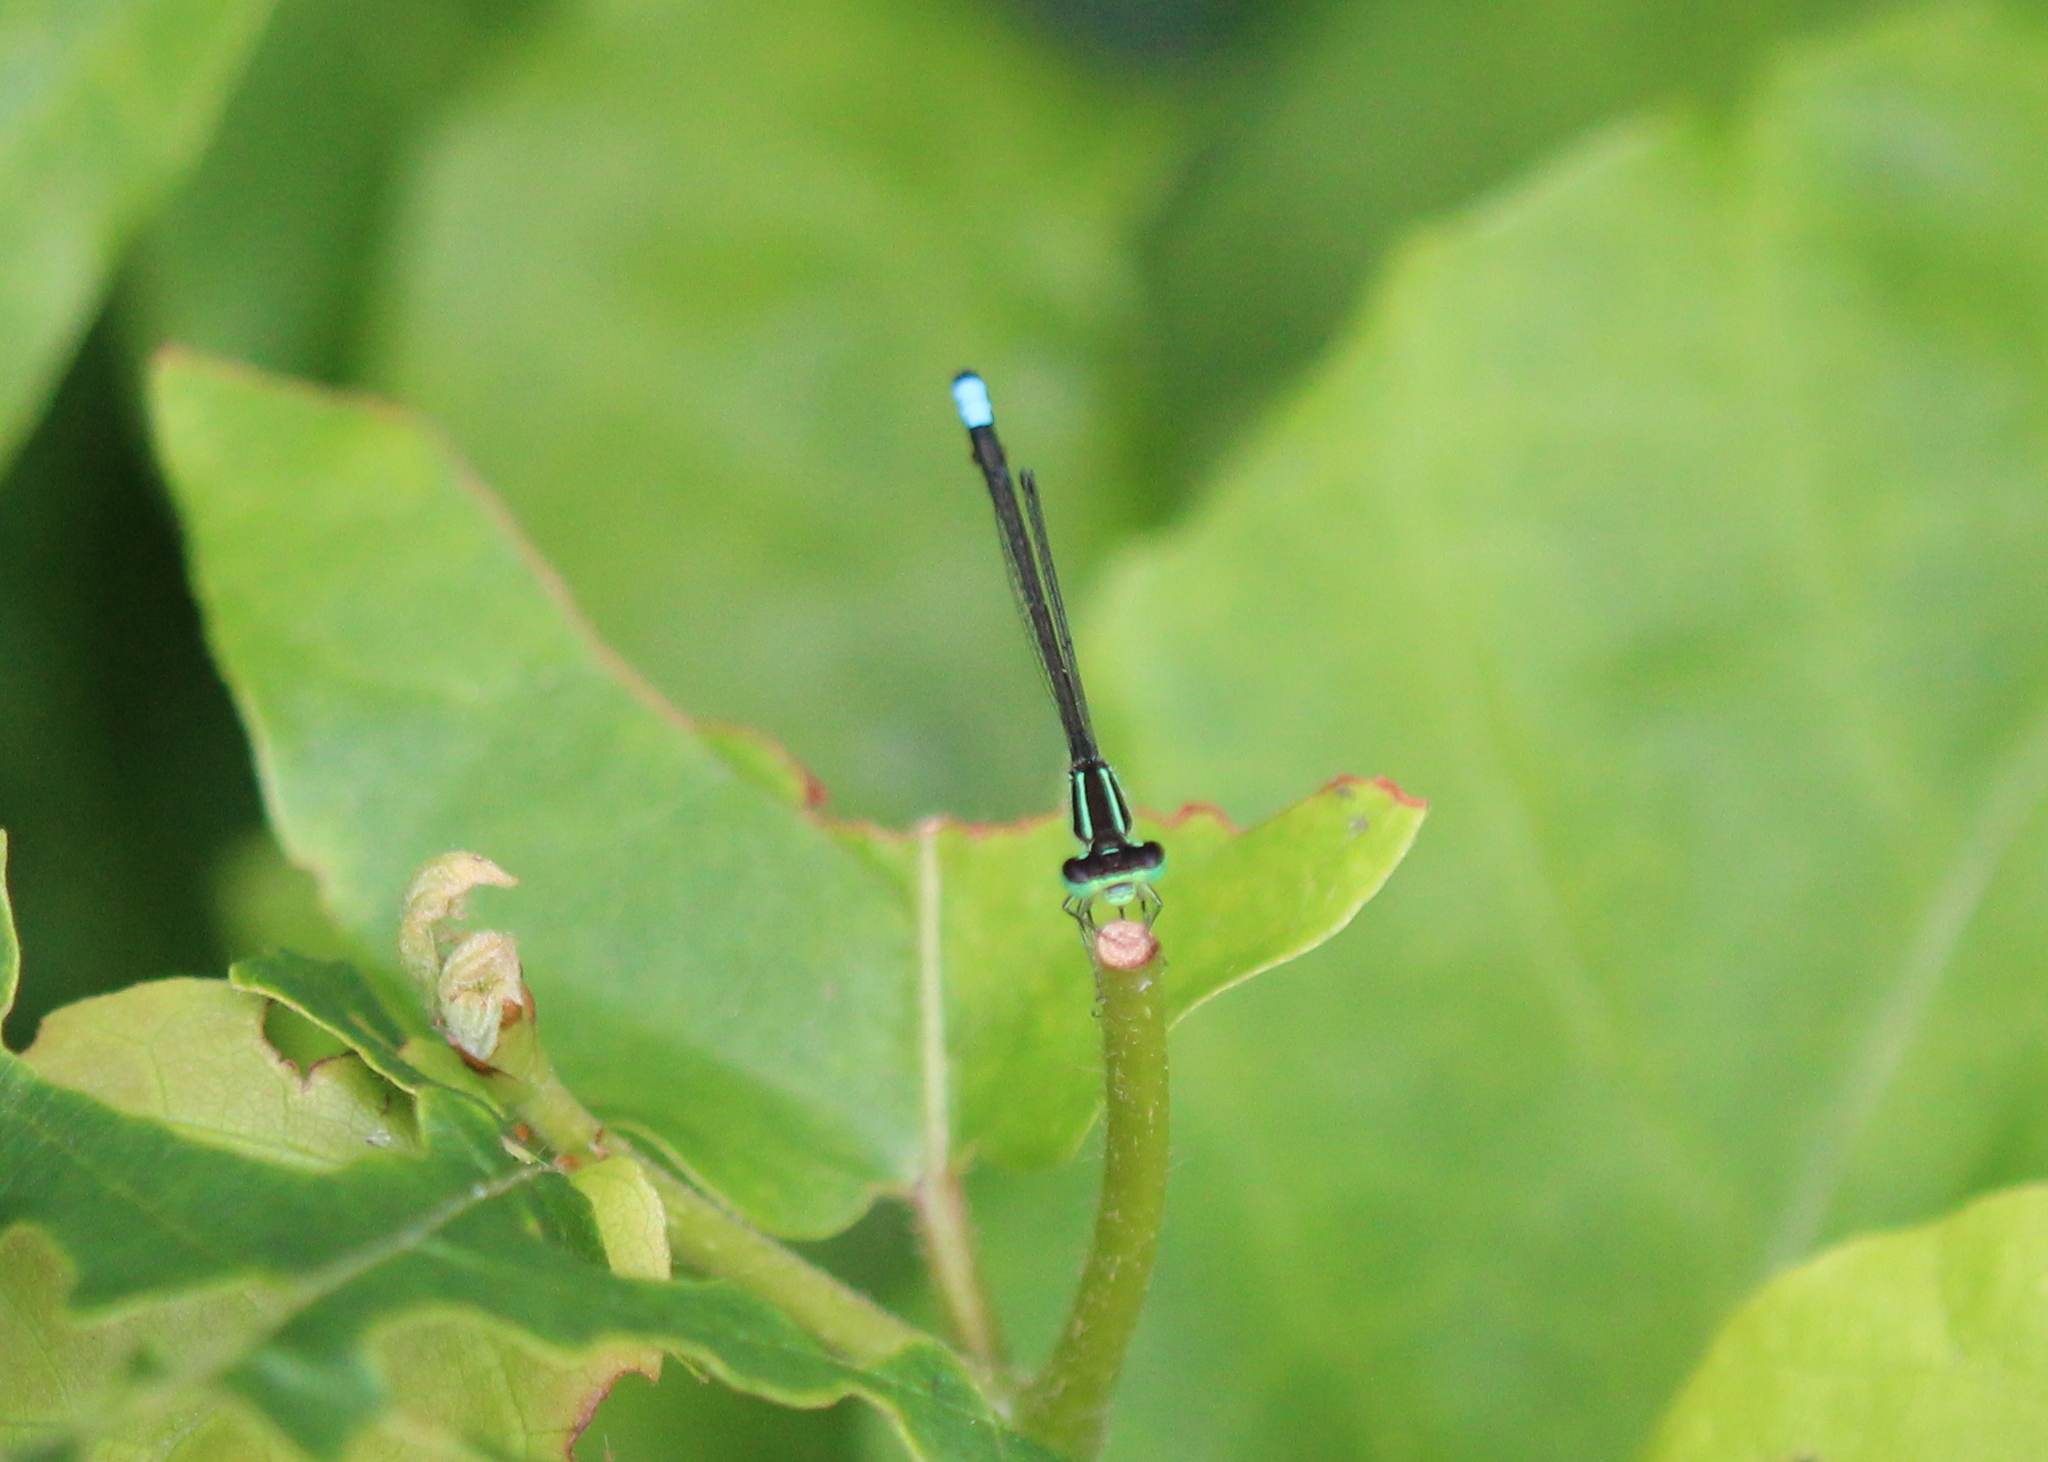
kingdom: Animalia
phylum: Arthropoda
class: Insecta
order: Odonata
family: Coenagrionidae
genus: Ischnura
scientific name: Ischnura verticalis
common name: Eastern forktail
